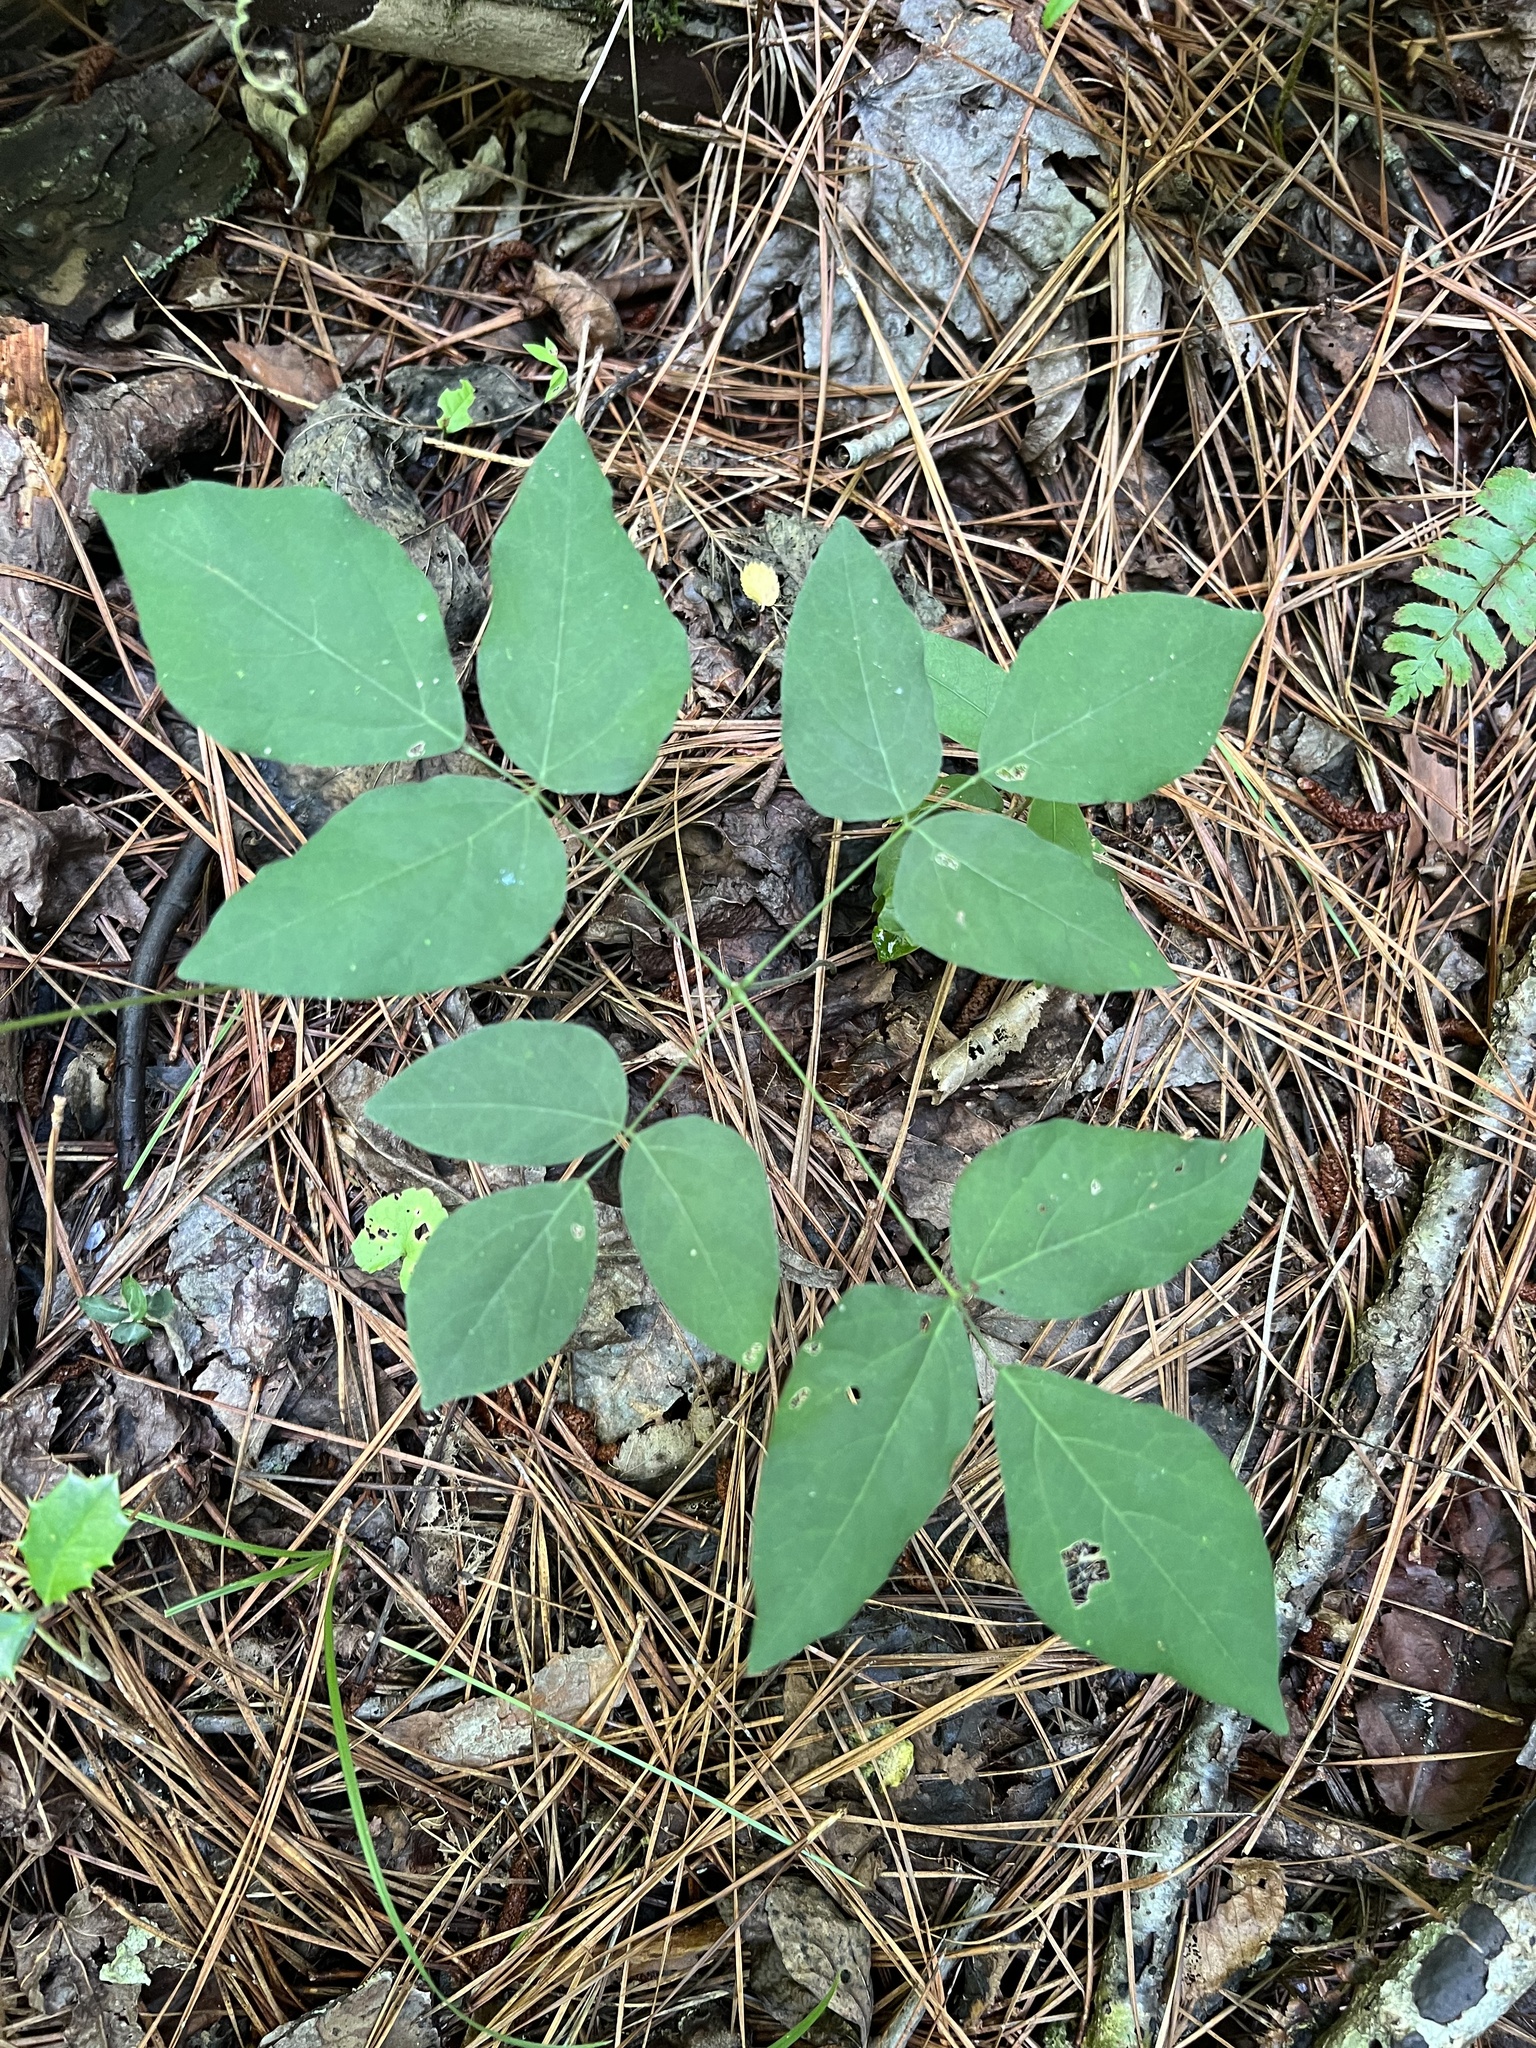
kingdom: Plantae
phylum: Tracheophyta
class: Magnoliopsida
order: Fabales
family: Fabaceae
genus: Hylodesmum
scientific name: Hylodesmum nudiflorum
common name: Bare-stemmed tick-trefoil
